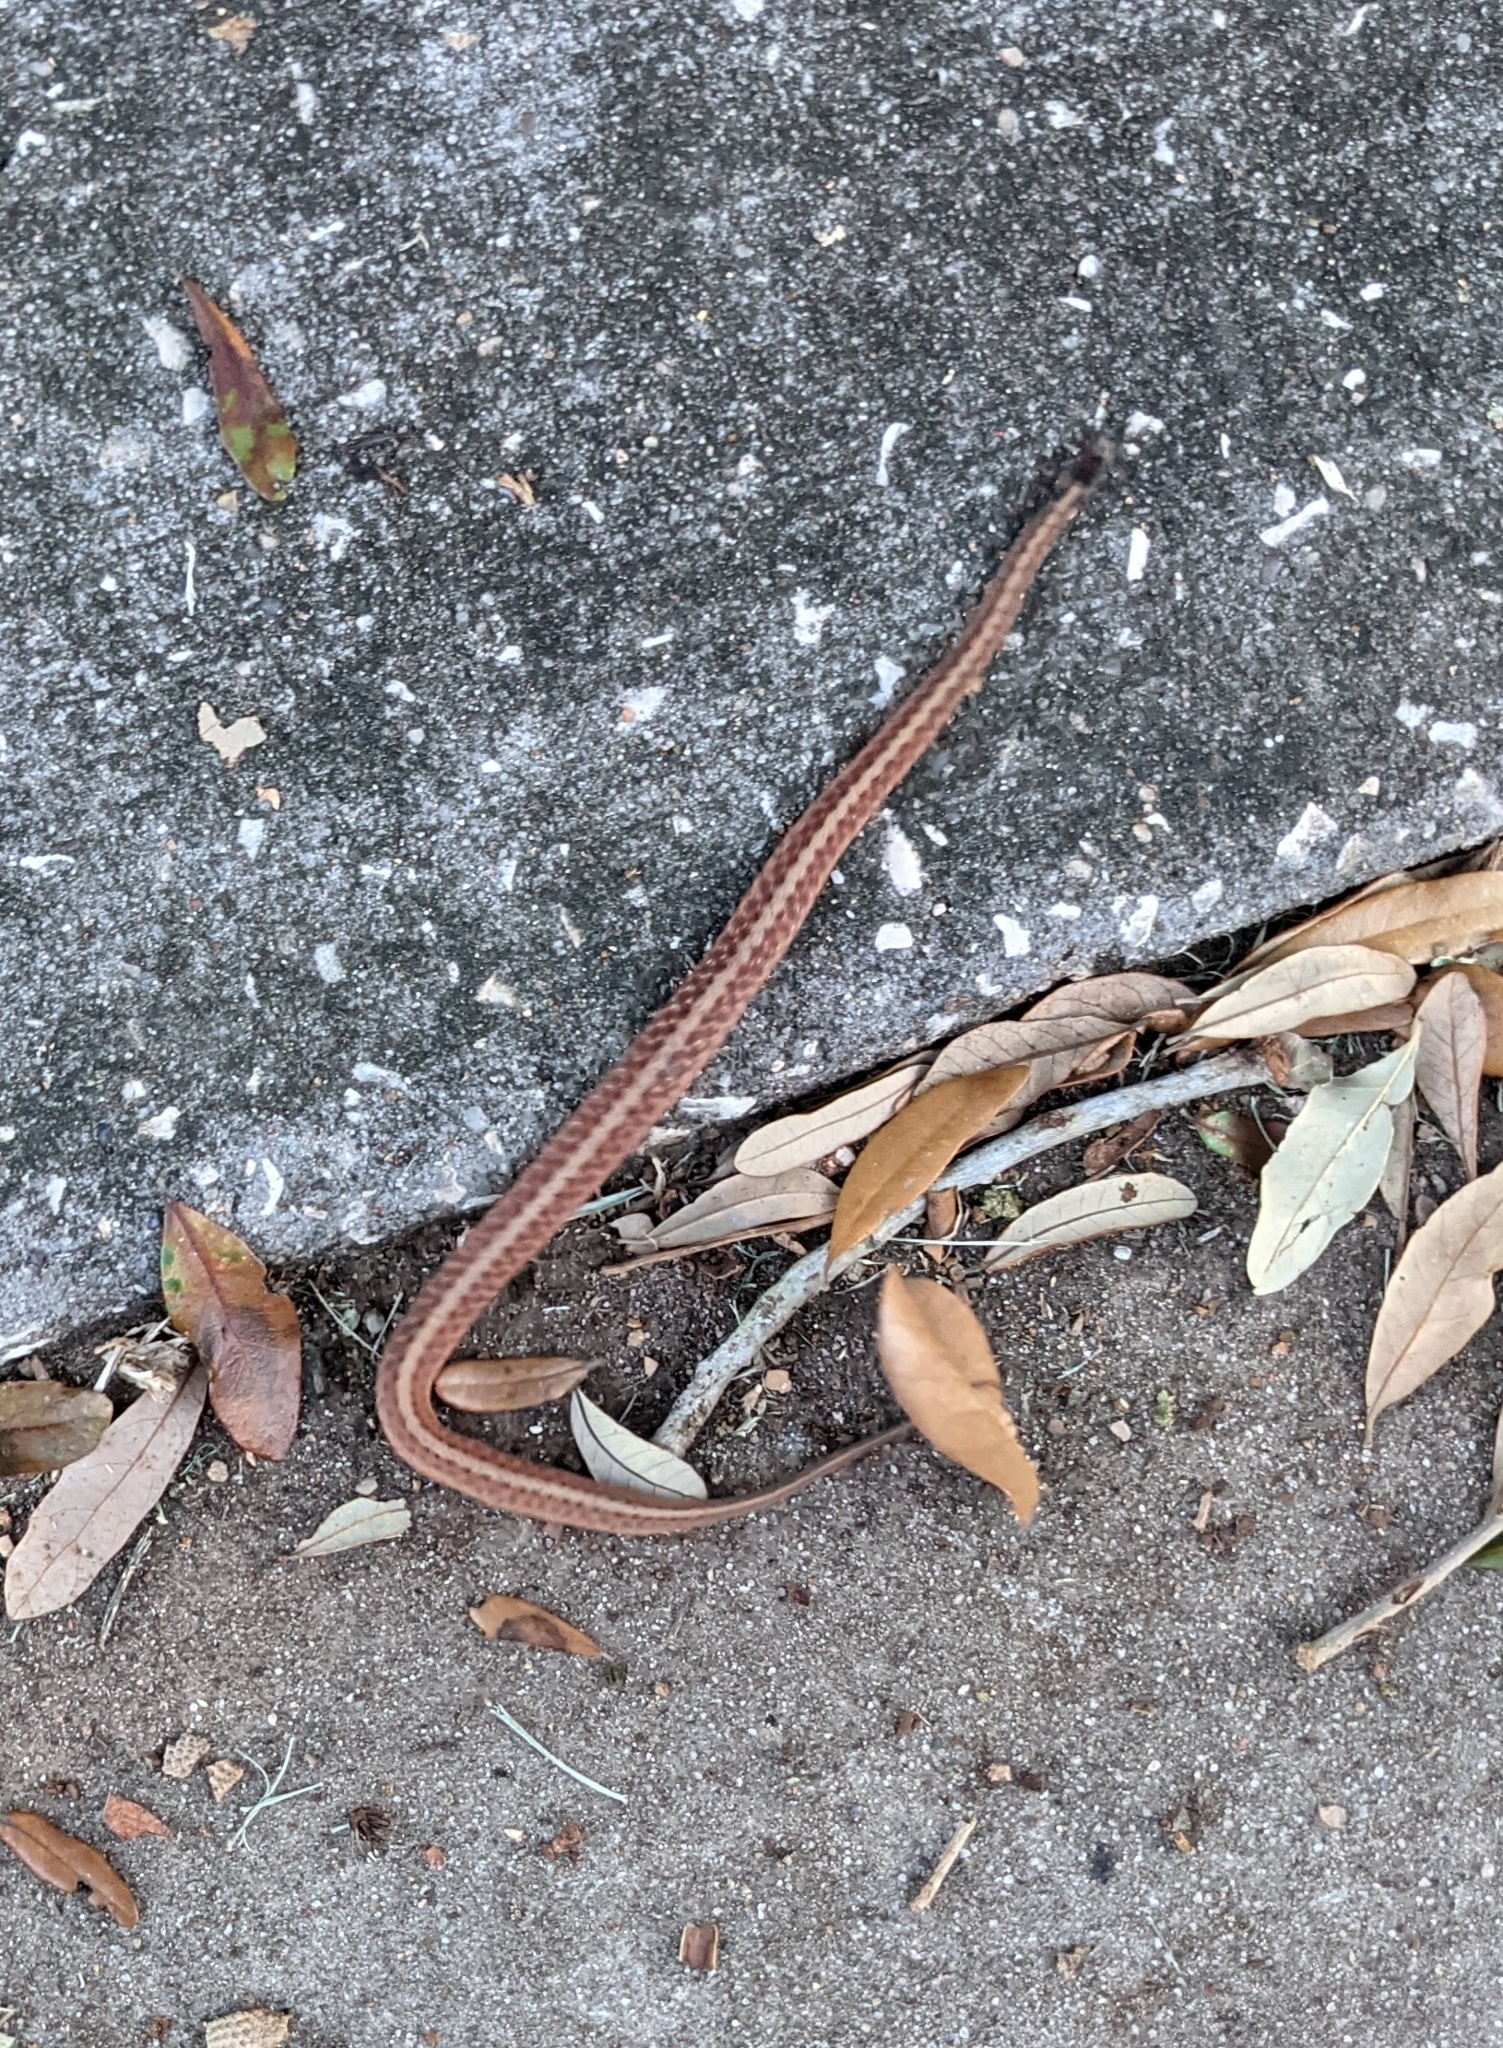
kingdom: Animalia
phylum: Chordata
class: Squamata
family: Colubridae
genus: Storeria
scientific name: Storeria dekayi
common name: (dekay’s) brown snake
